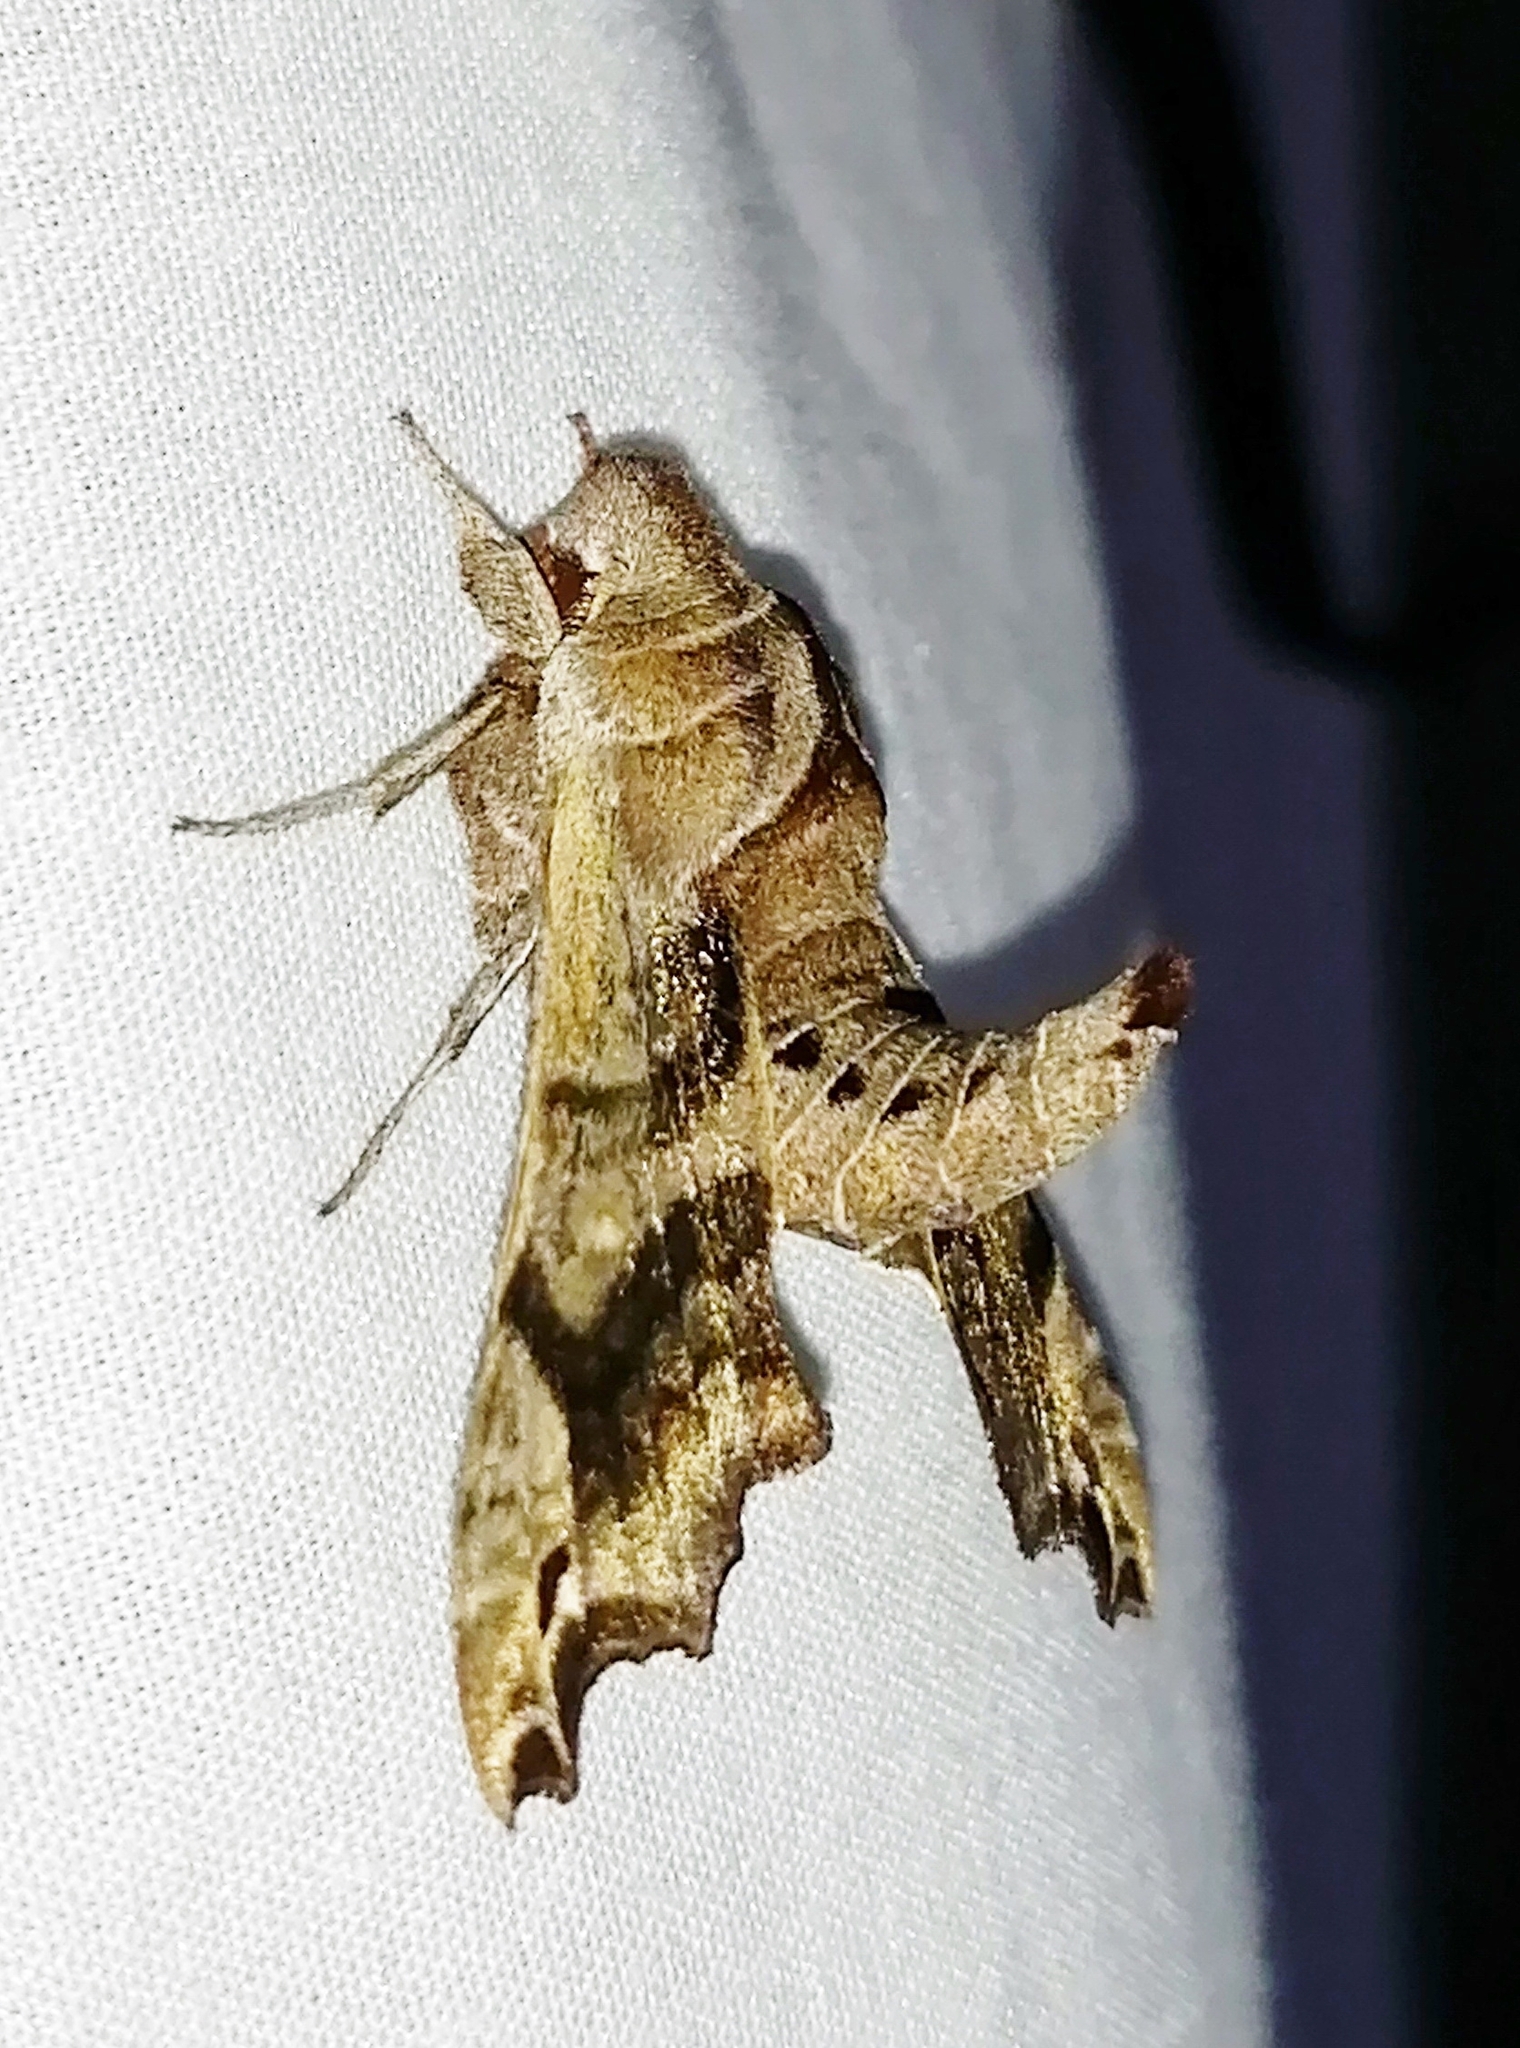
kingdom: Animalia
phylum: Arthropoda
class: Insecta
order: Lepidoptera
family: Sphingidae
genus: Deidamia
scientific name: Deidamia inscriptum
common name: Lettered sphinx
